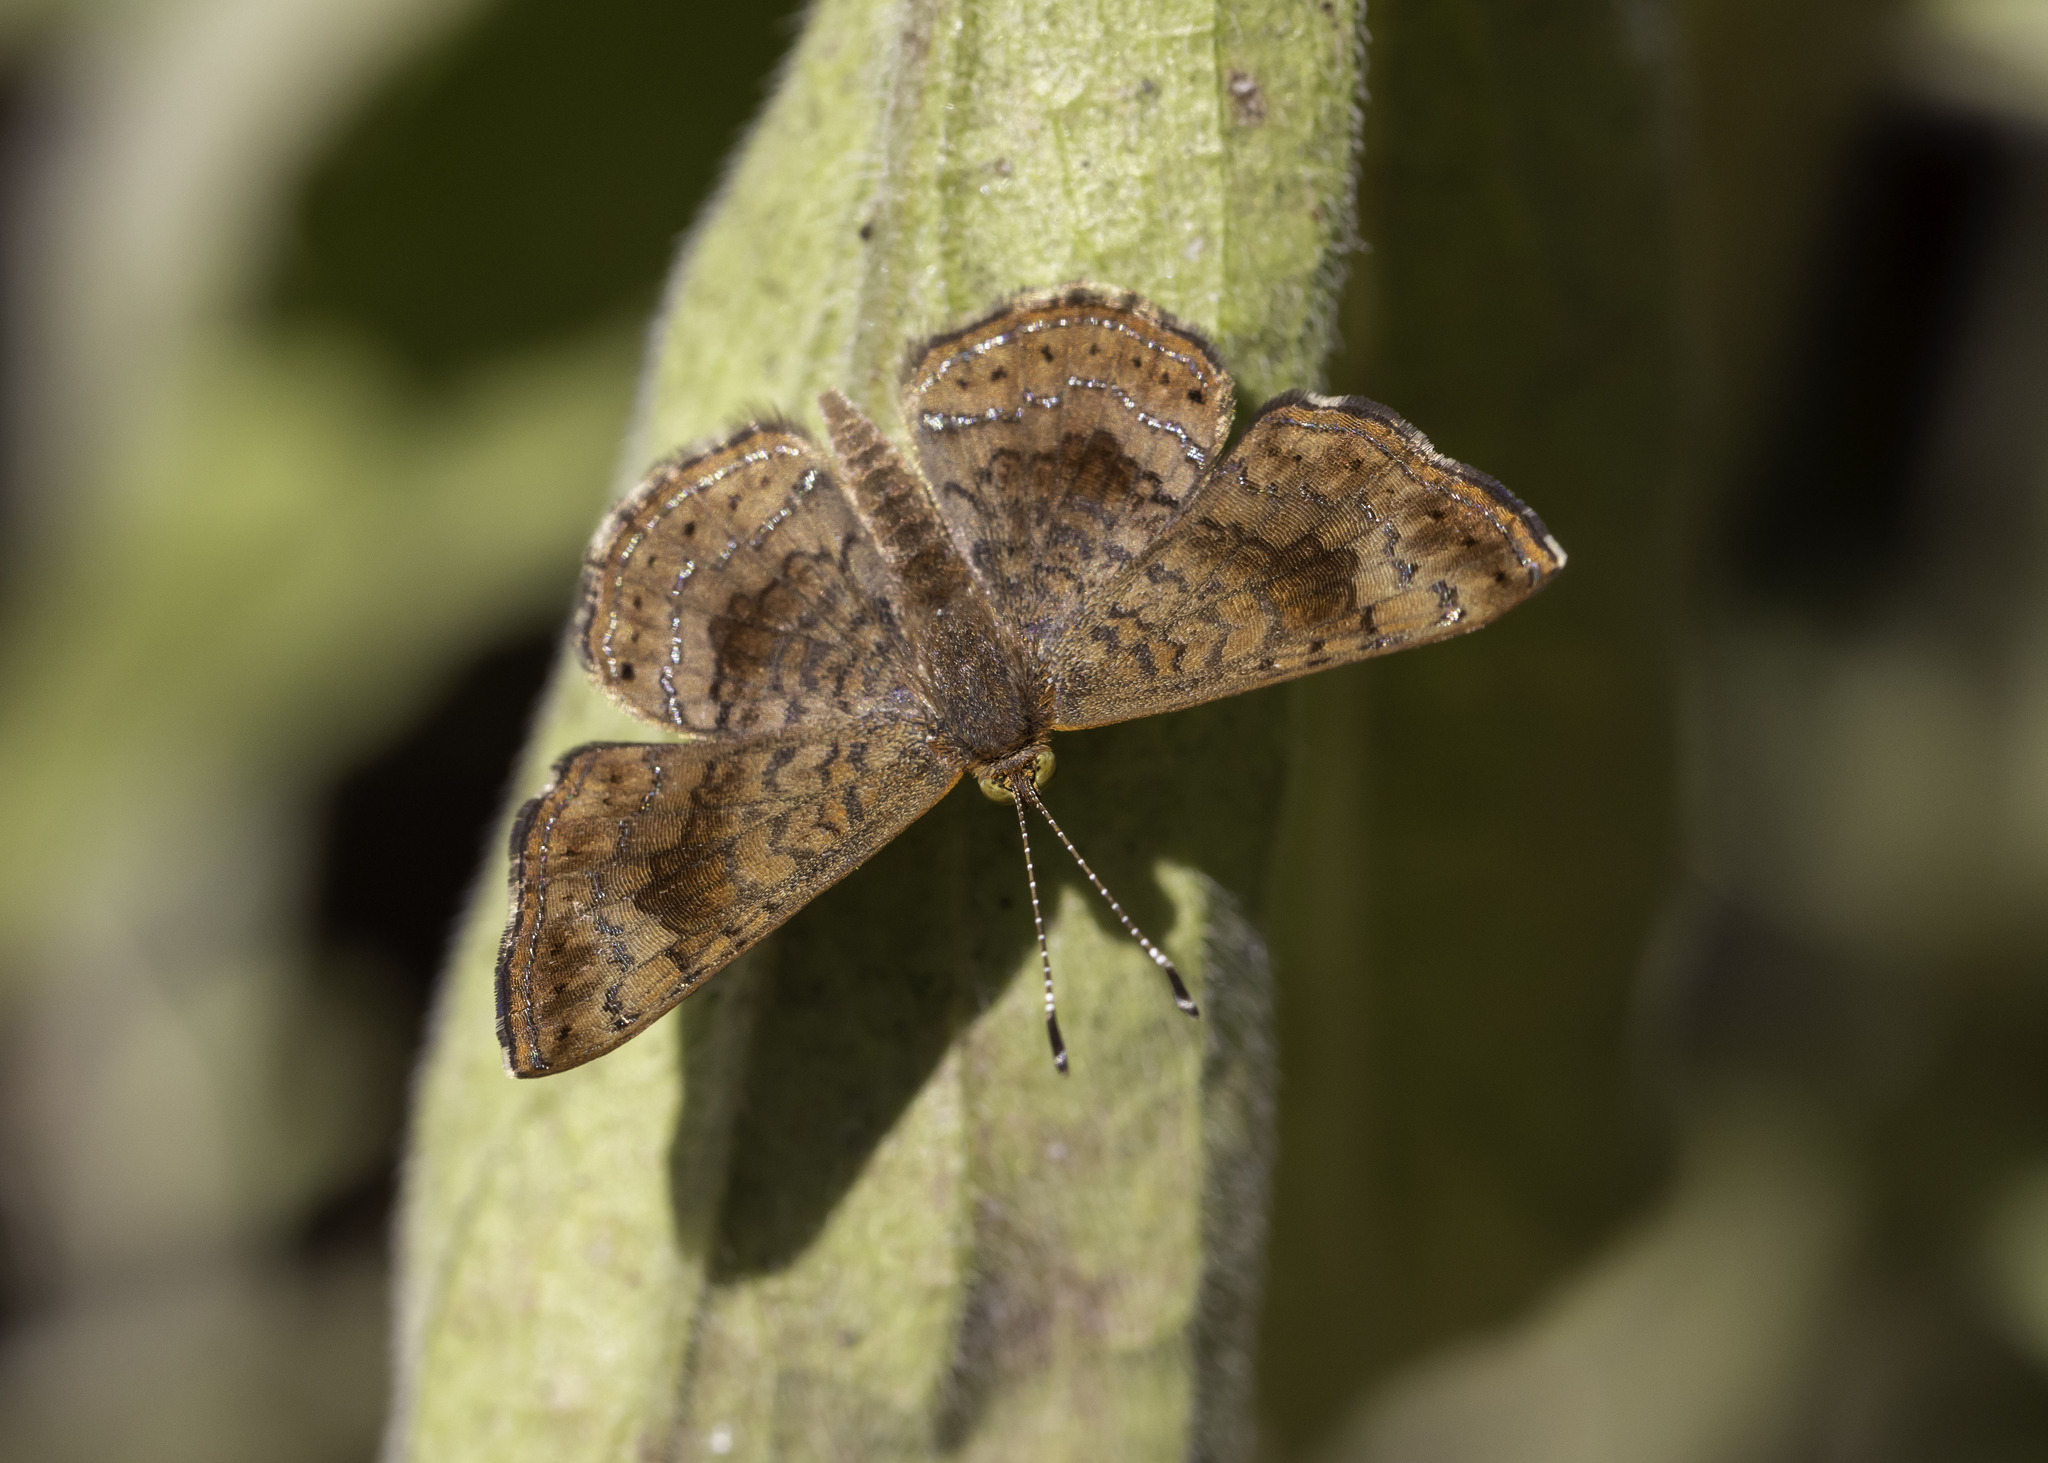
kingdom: Animalia
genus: Calephelis
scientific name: Calephelis nemesis
